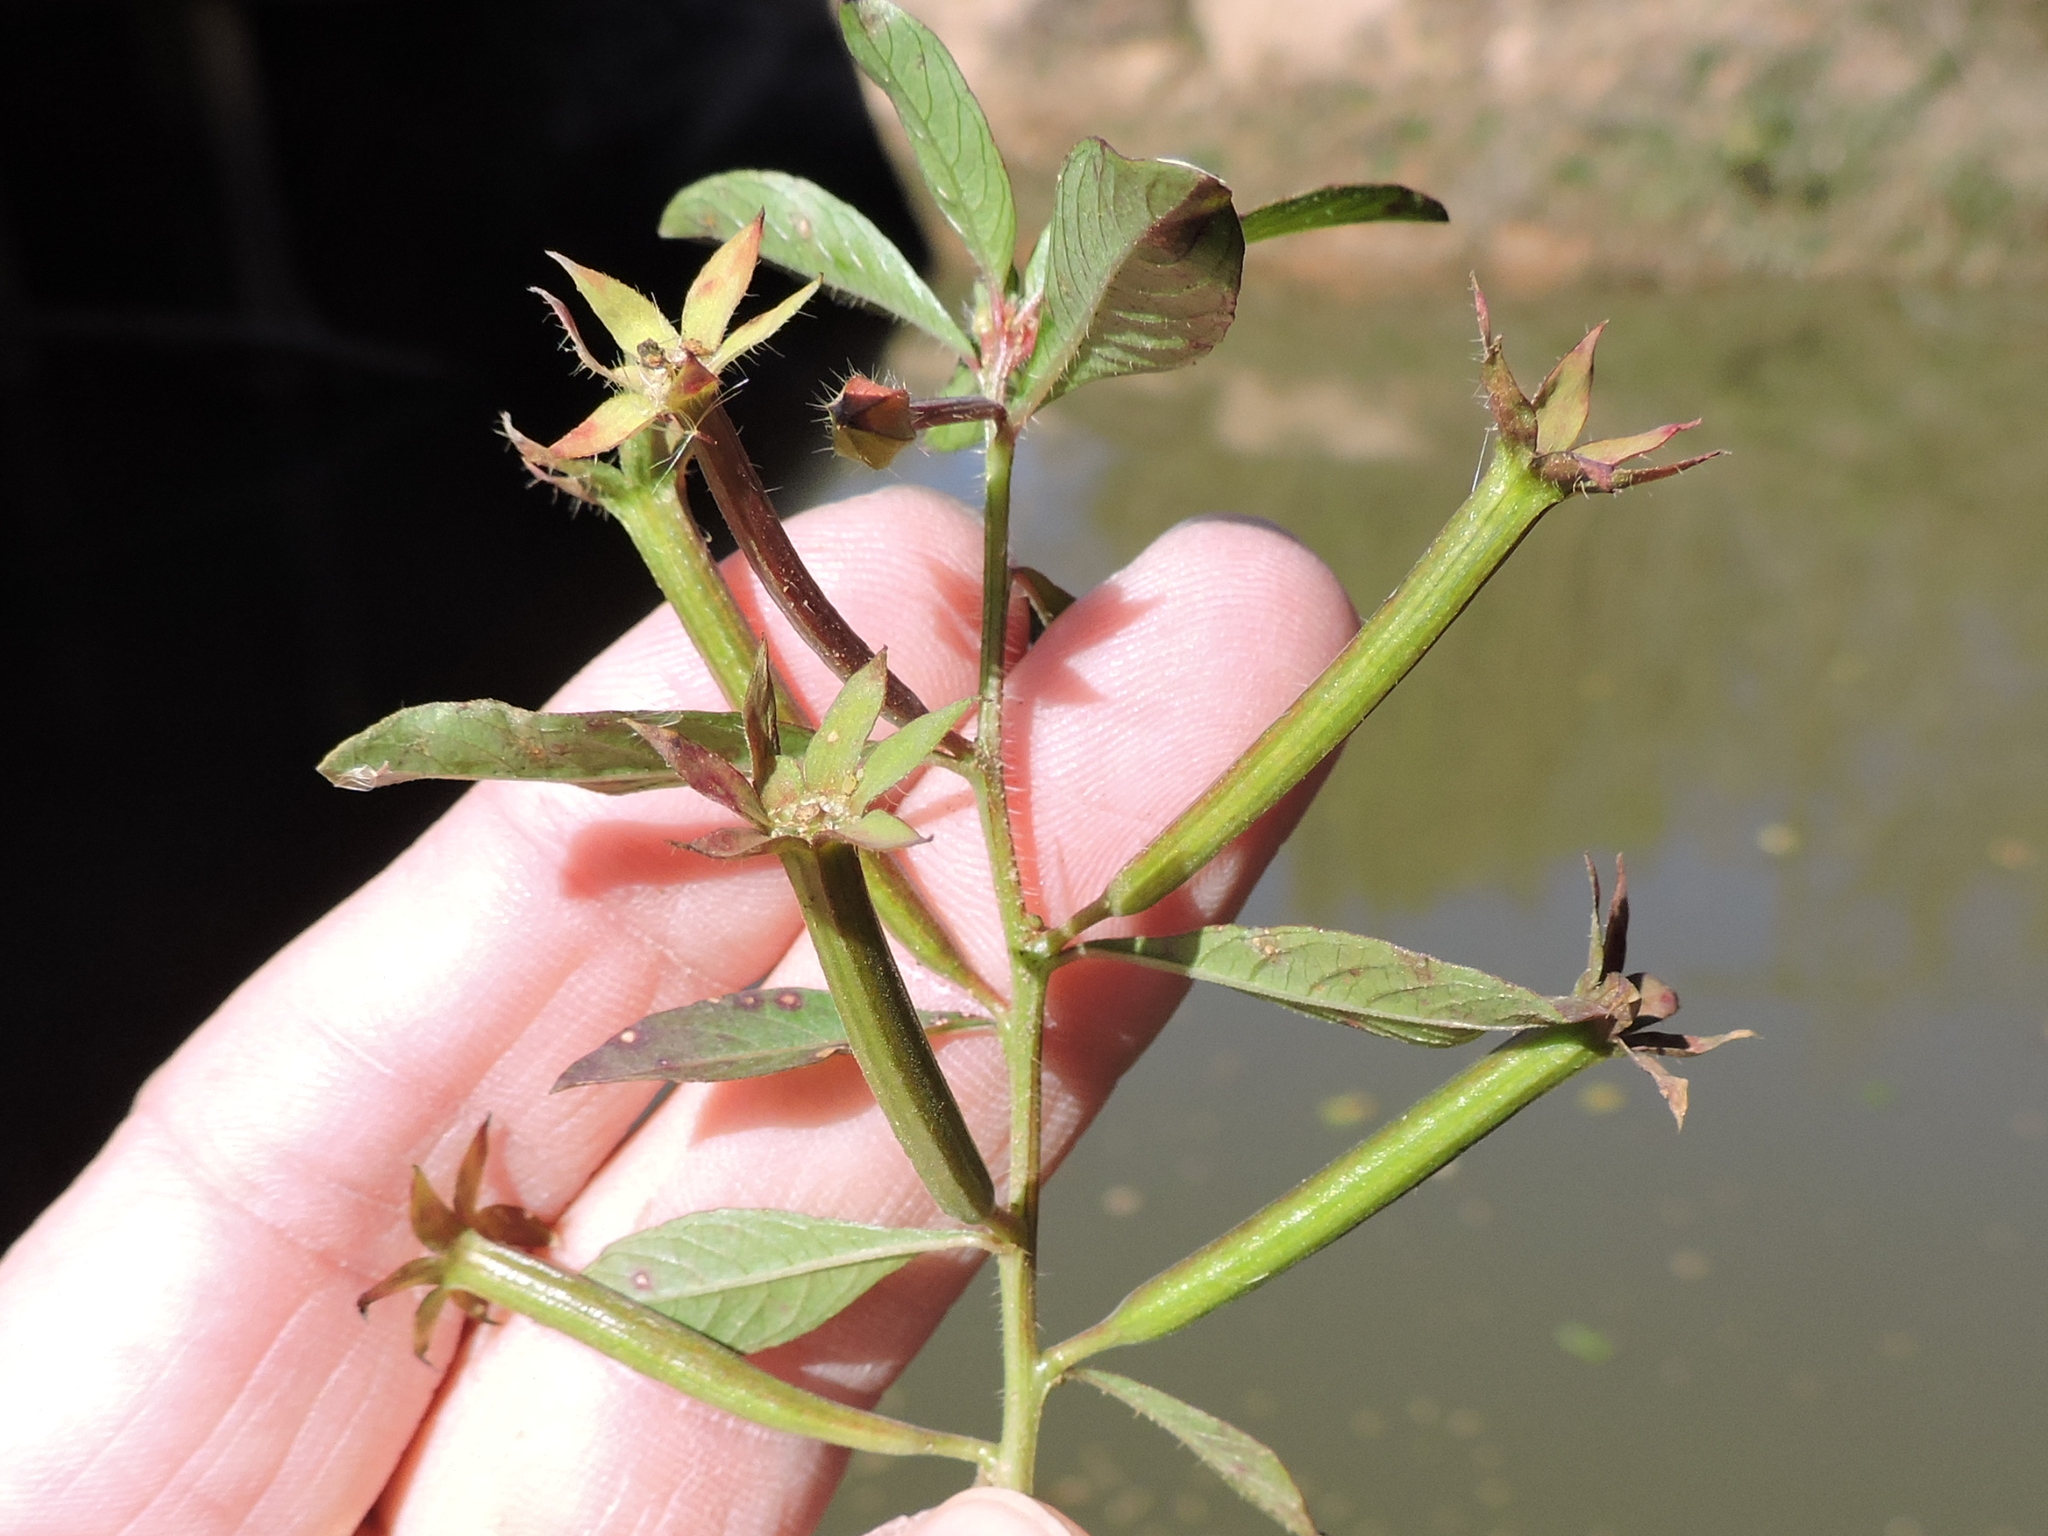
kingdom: Plantae
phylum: Tracheophyta
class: Magnoliopsida
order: Myrtales
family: Onagraceae
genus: Ludwigia
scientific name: Ludwigia leptocarpa
